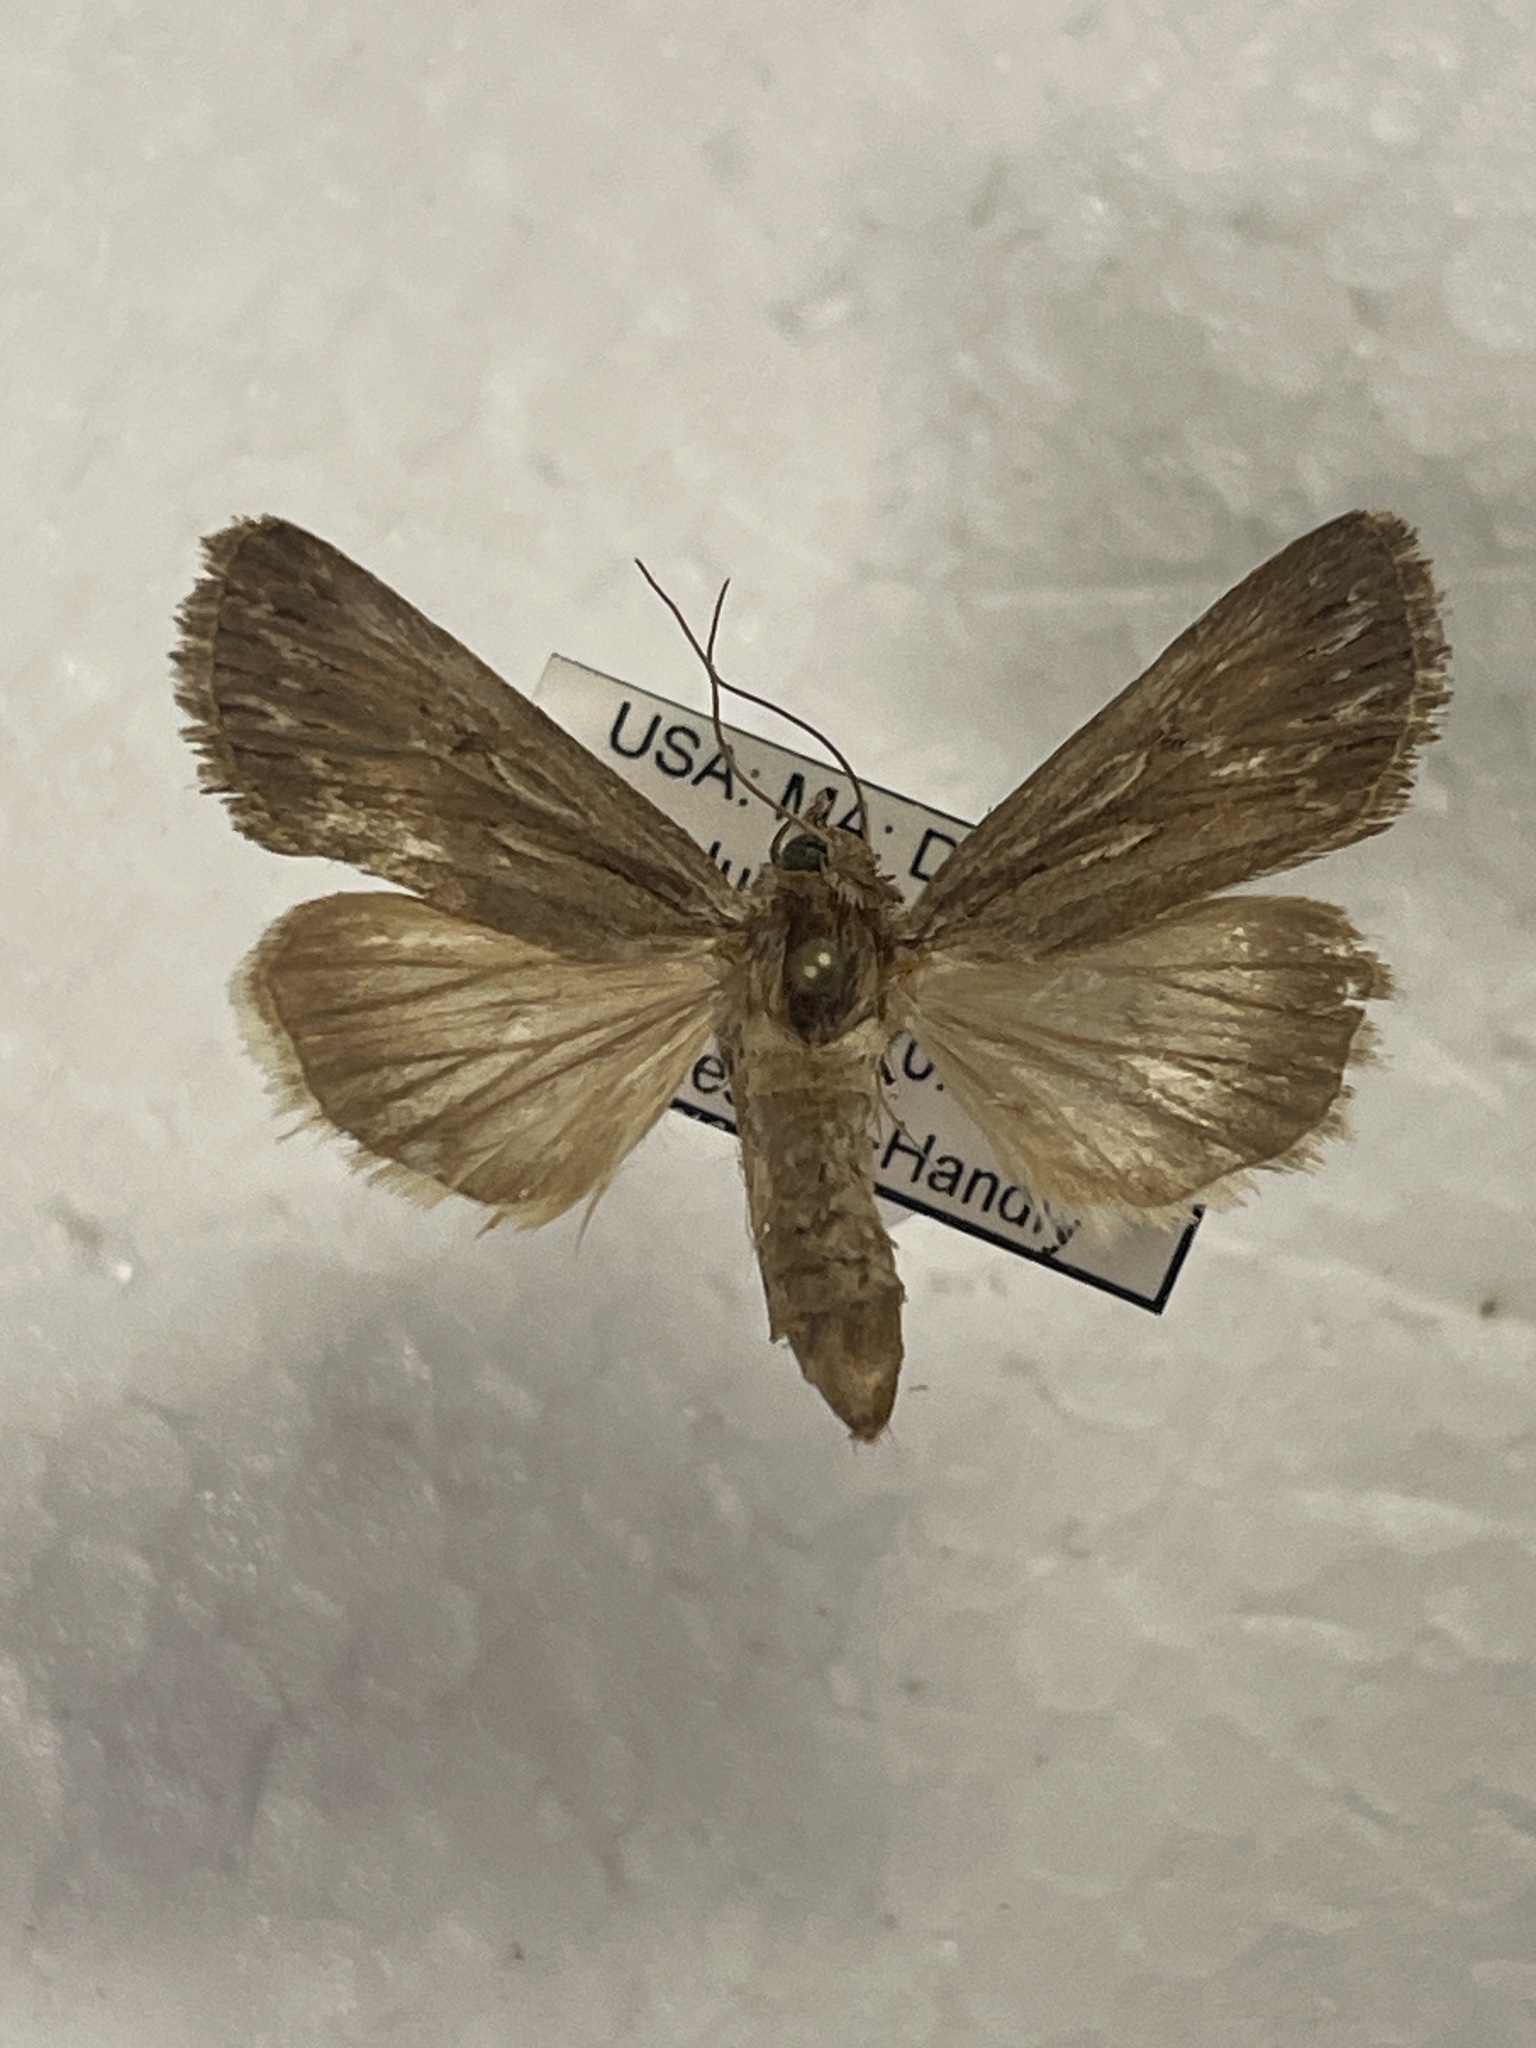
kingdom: Animalia
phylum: Arthropoda
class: Insecta
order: Lepidoptera
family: Noctuidae
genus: Sympistis
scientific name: Sympistis riparia
